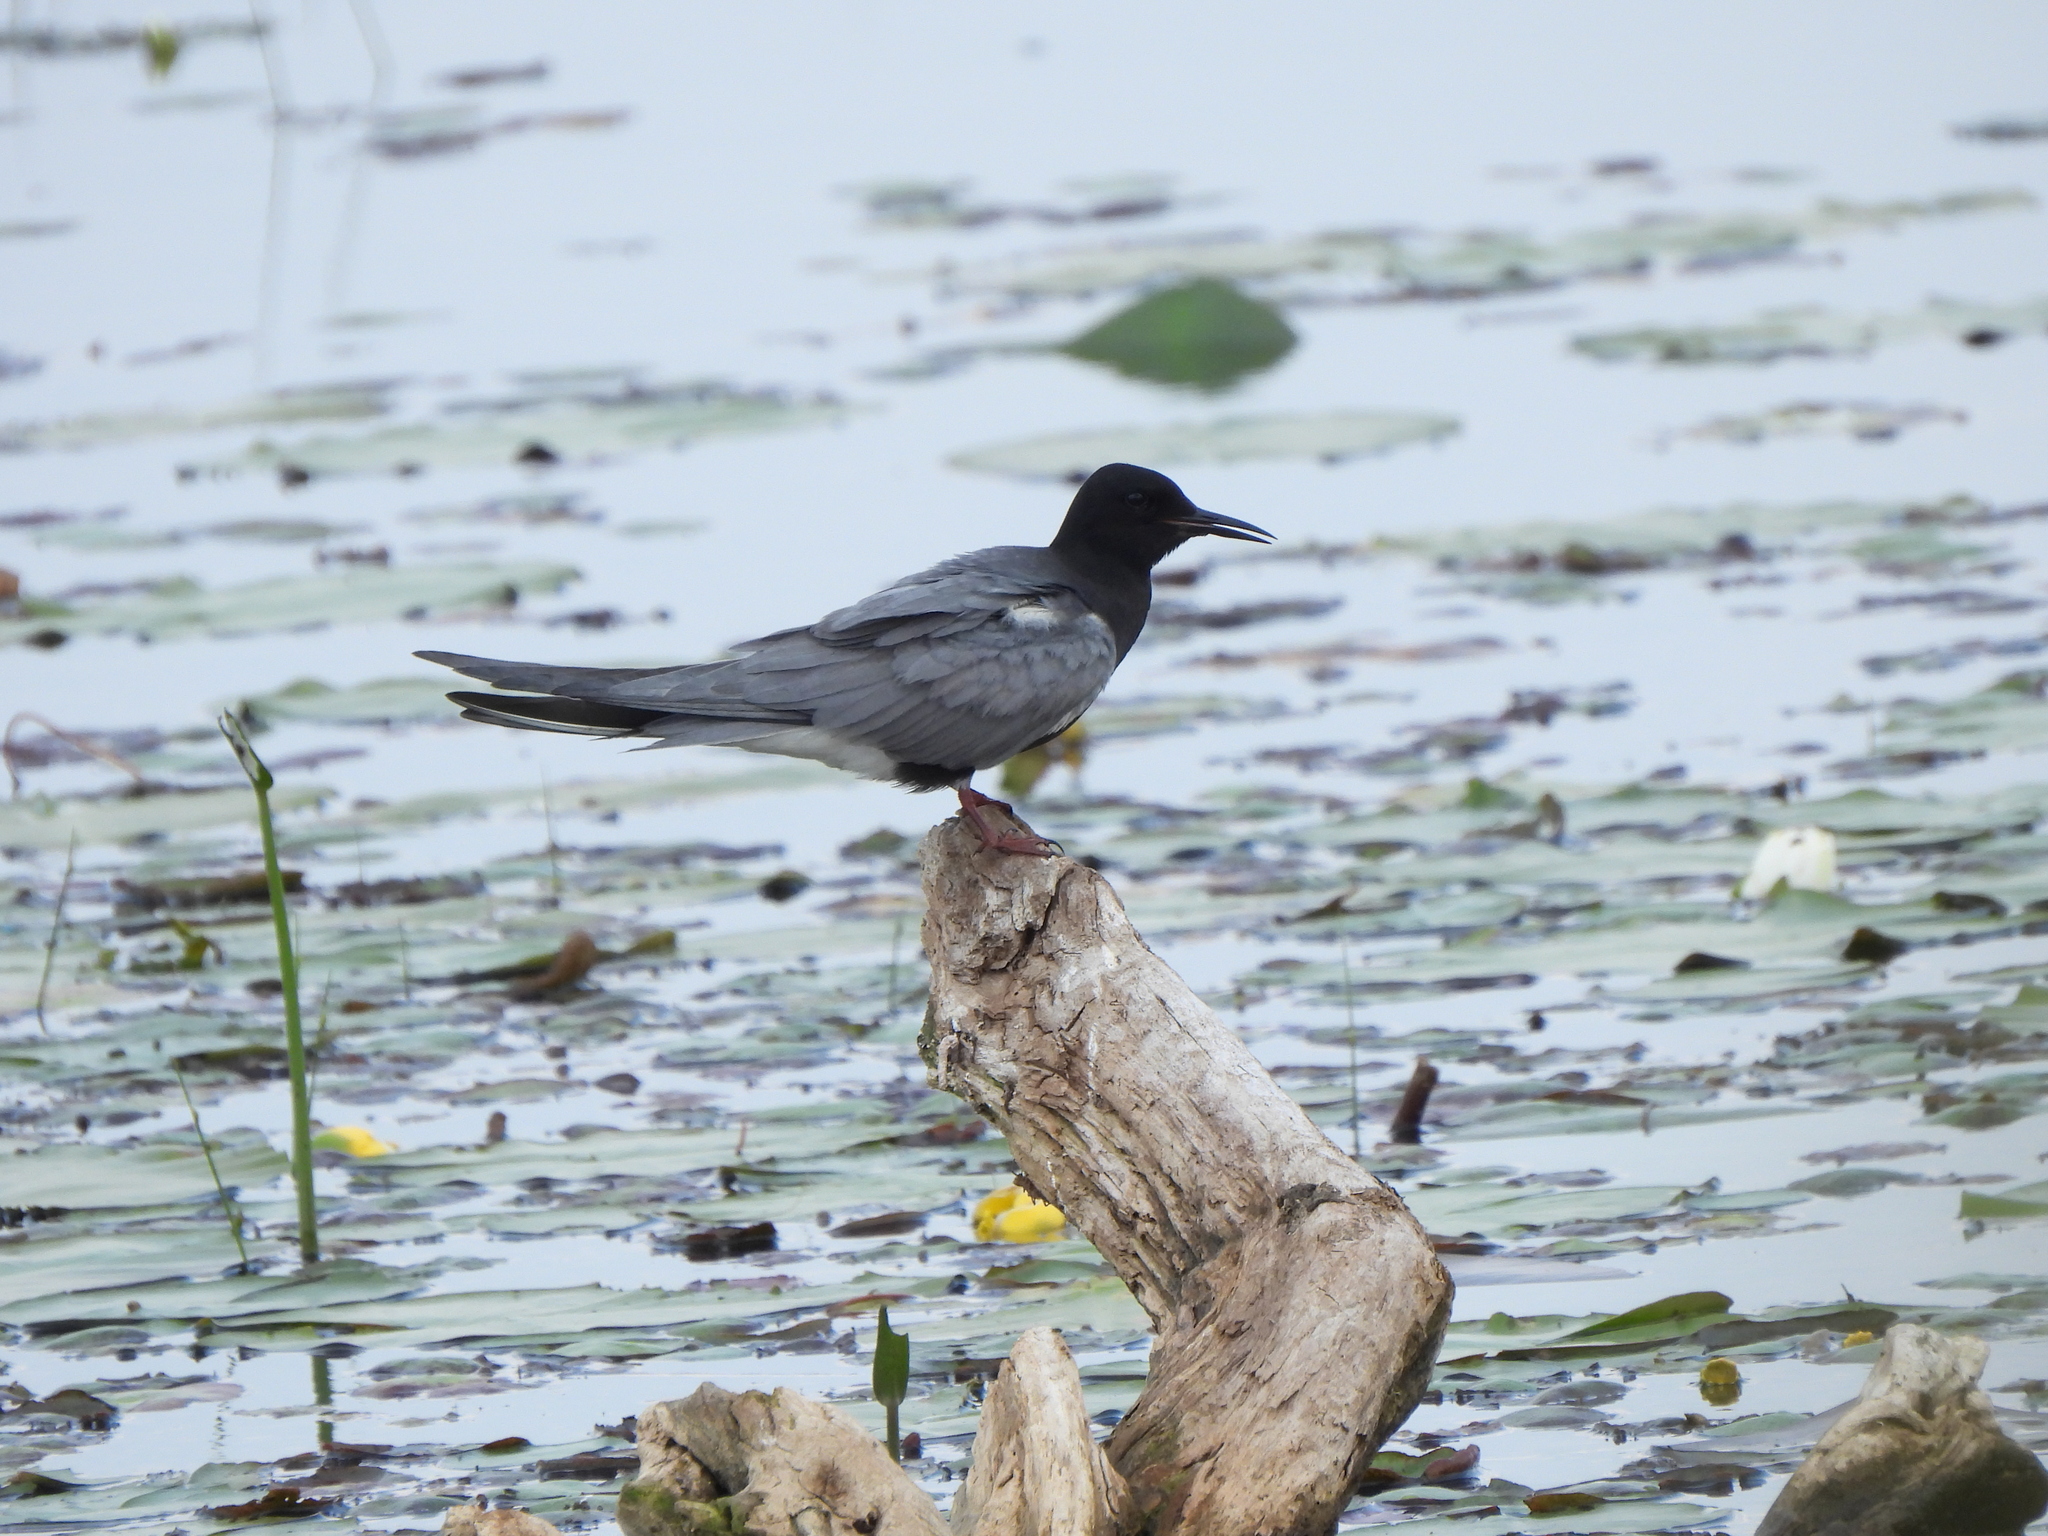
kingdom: Animalia
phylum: Chordata
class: Aves
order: Charadriiformes
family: Laridae
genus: Chlidonias
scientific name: Chlidonias niger
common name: Black tern
